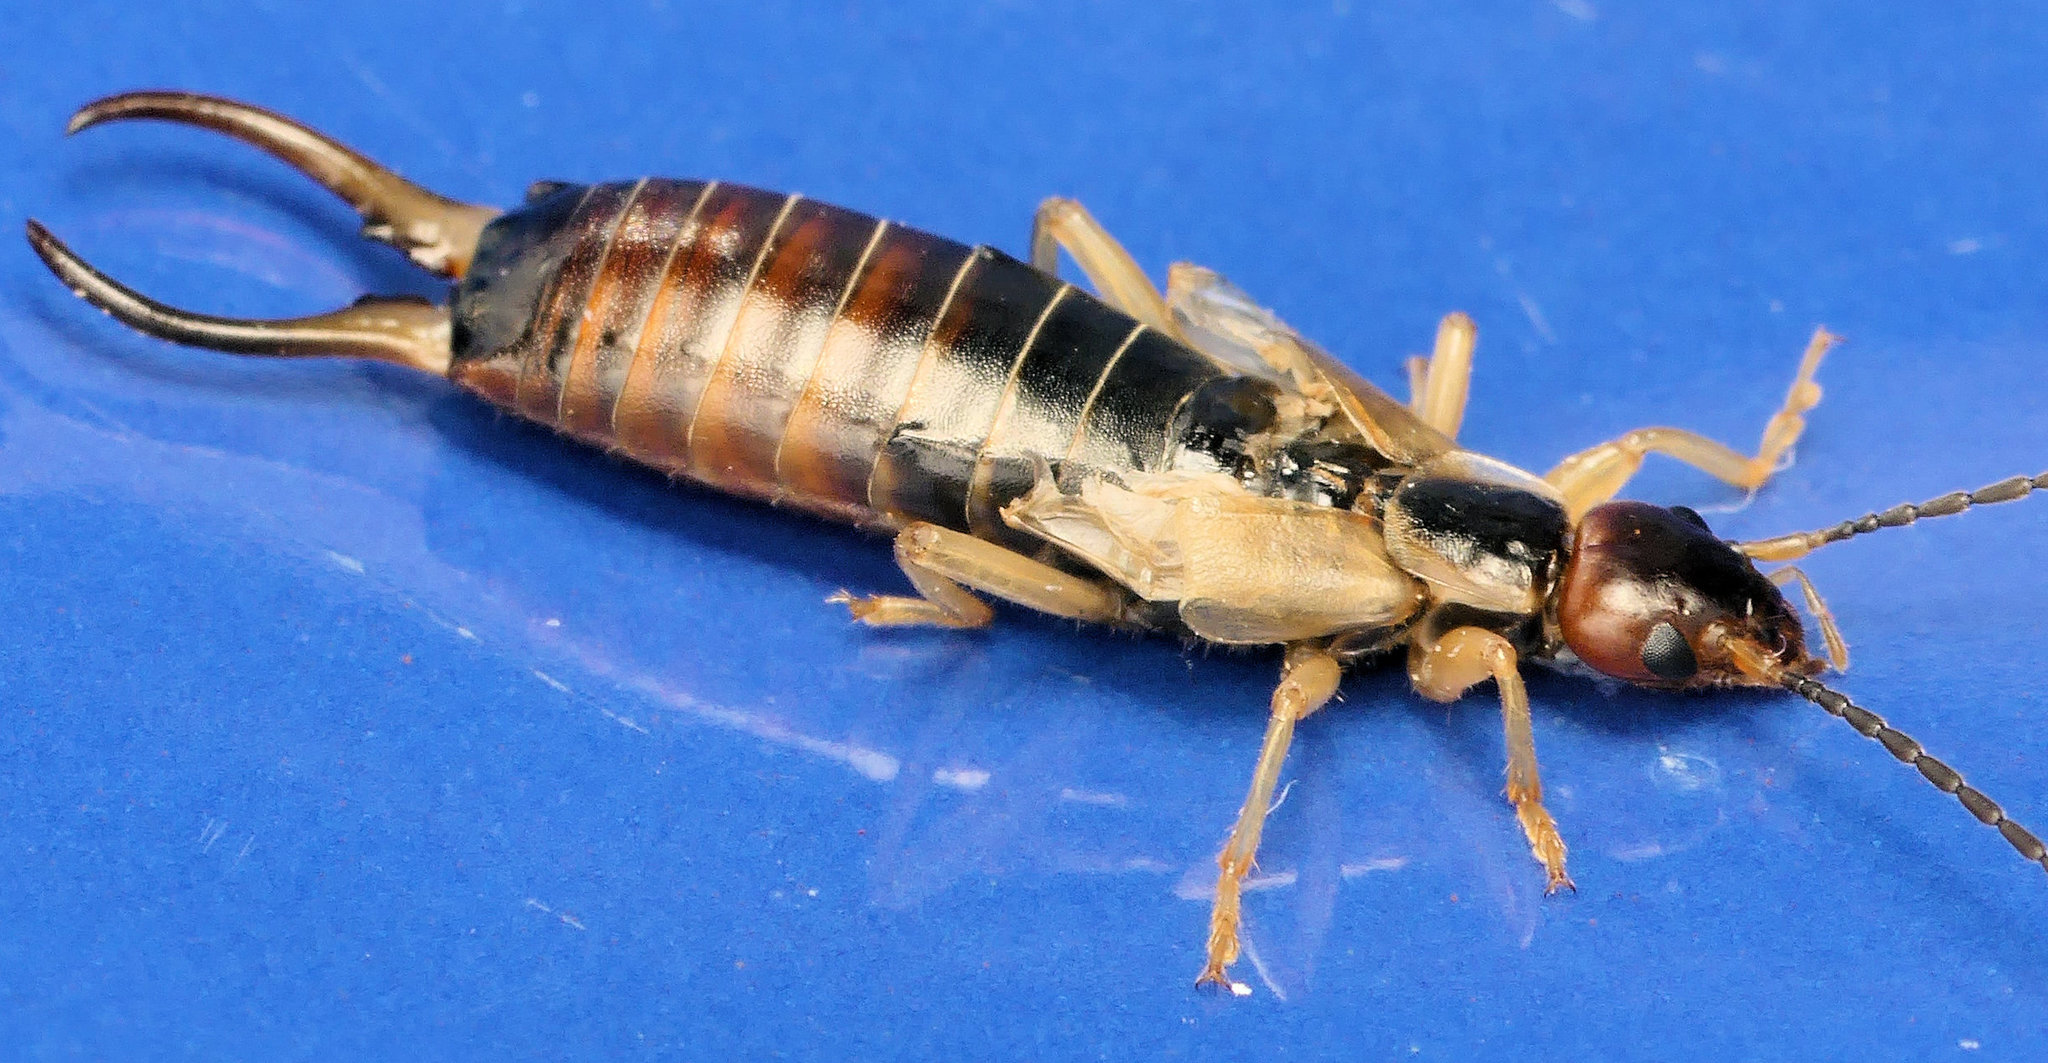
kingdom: Animalia
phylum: Arthropoda
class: Insecta
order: Dermaptera
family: Forficulidae
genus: Forficula
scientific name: Forficula
